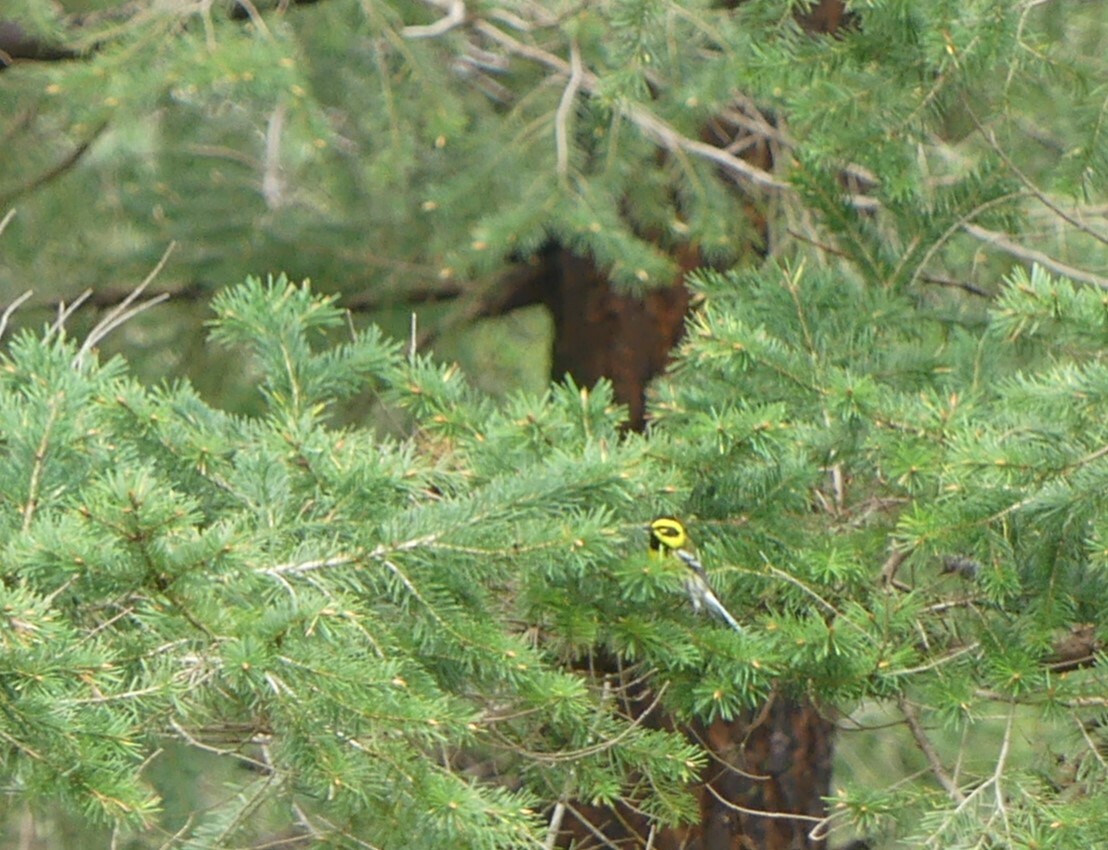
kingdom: Animalia
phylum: Chordata
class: Aves
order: Passeriformes
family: Parulidae
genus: Setophaga
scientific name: Setophaga townsendi
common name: Townsend's warbler
